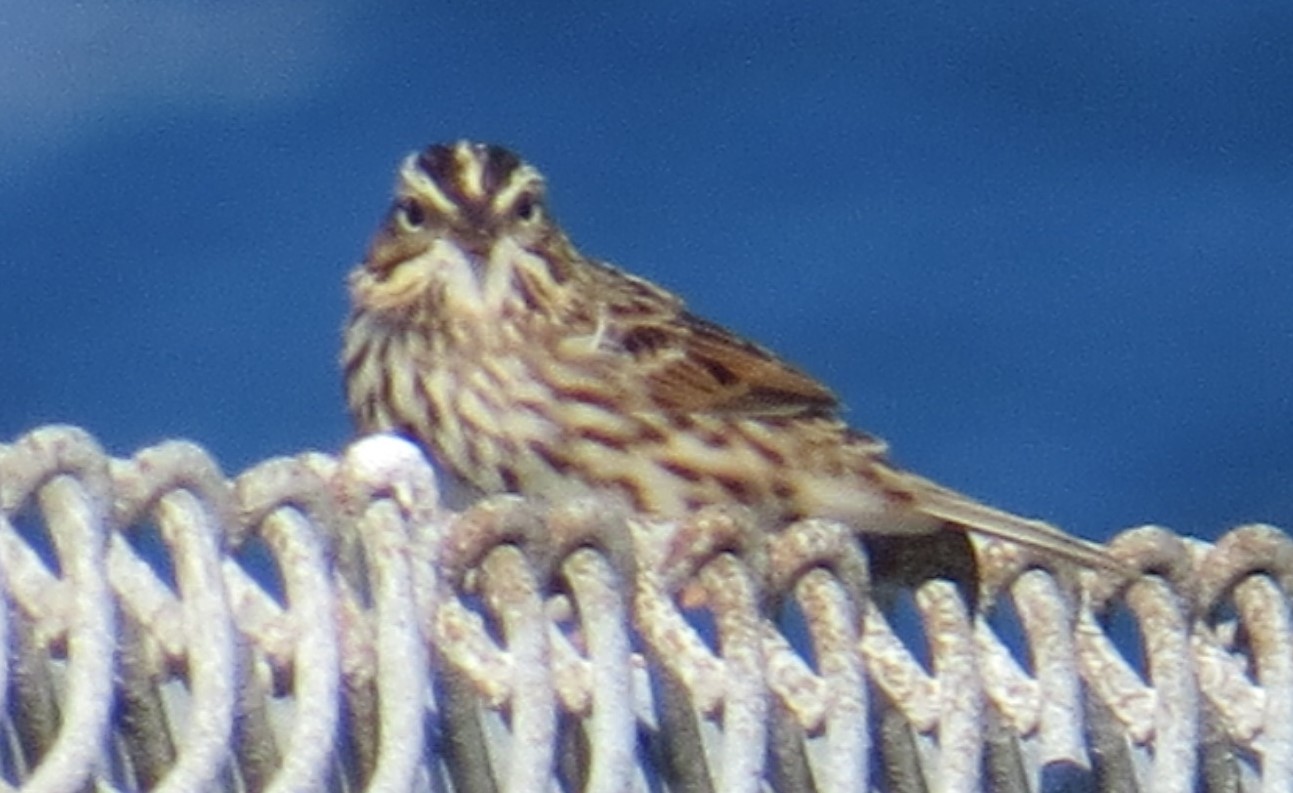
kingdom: Animalia
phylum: Chordata
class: Aves
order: Passeriformes
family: Passerellidae
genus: Passerculus
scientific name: Passerculus sandwichensis
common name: Savannah sparrow
